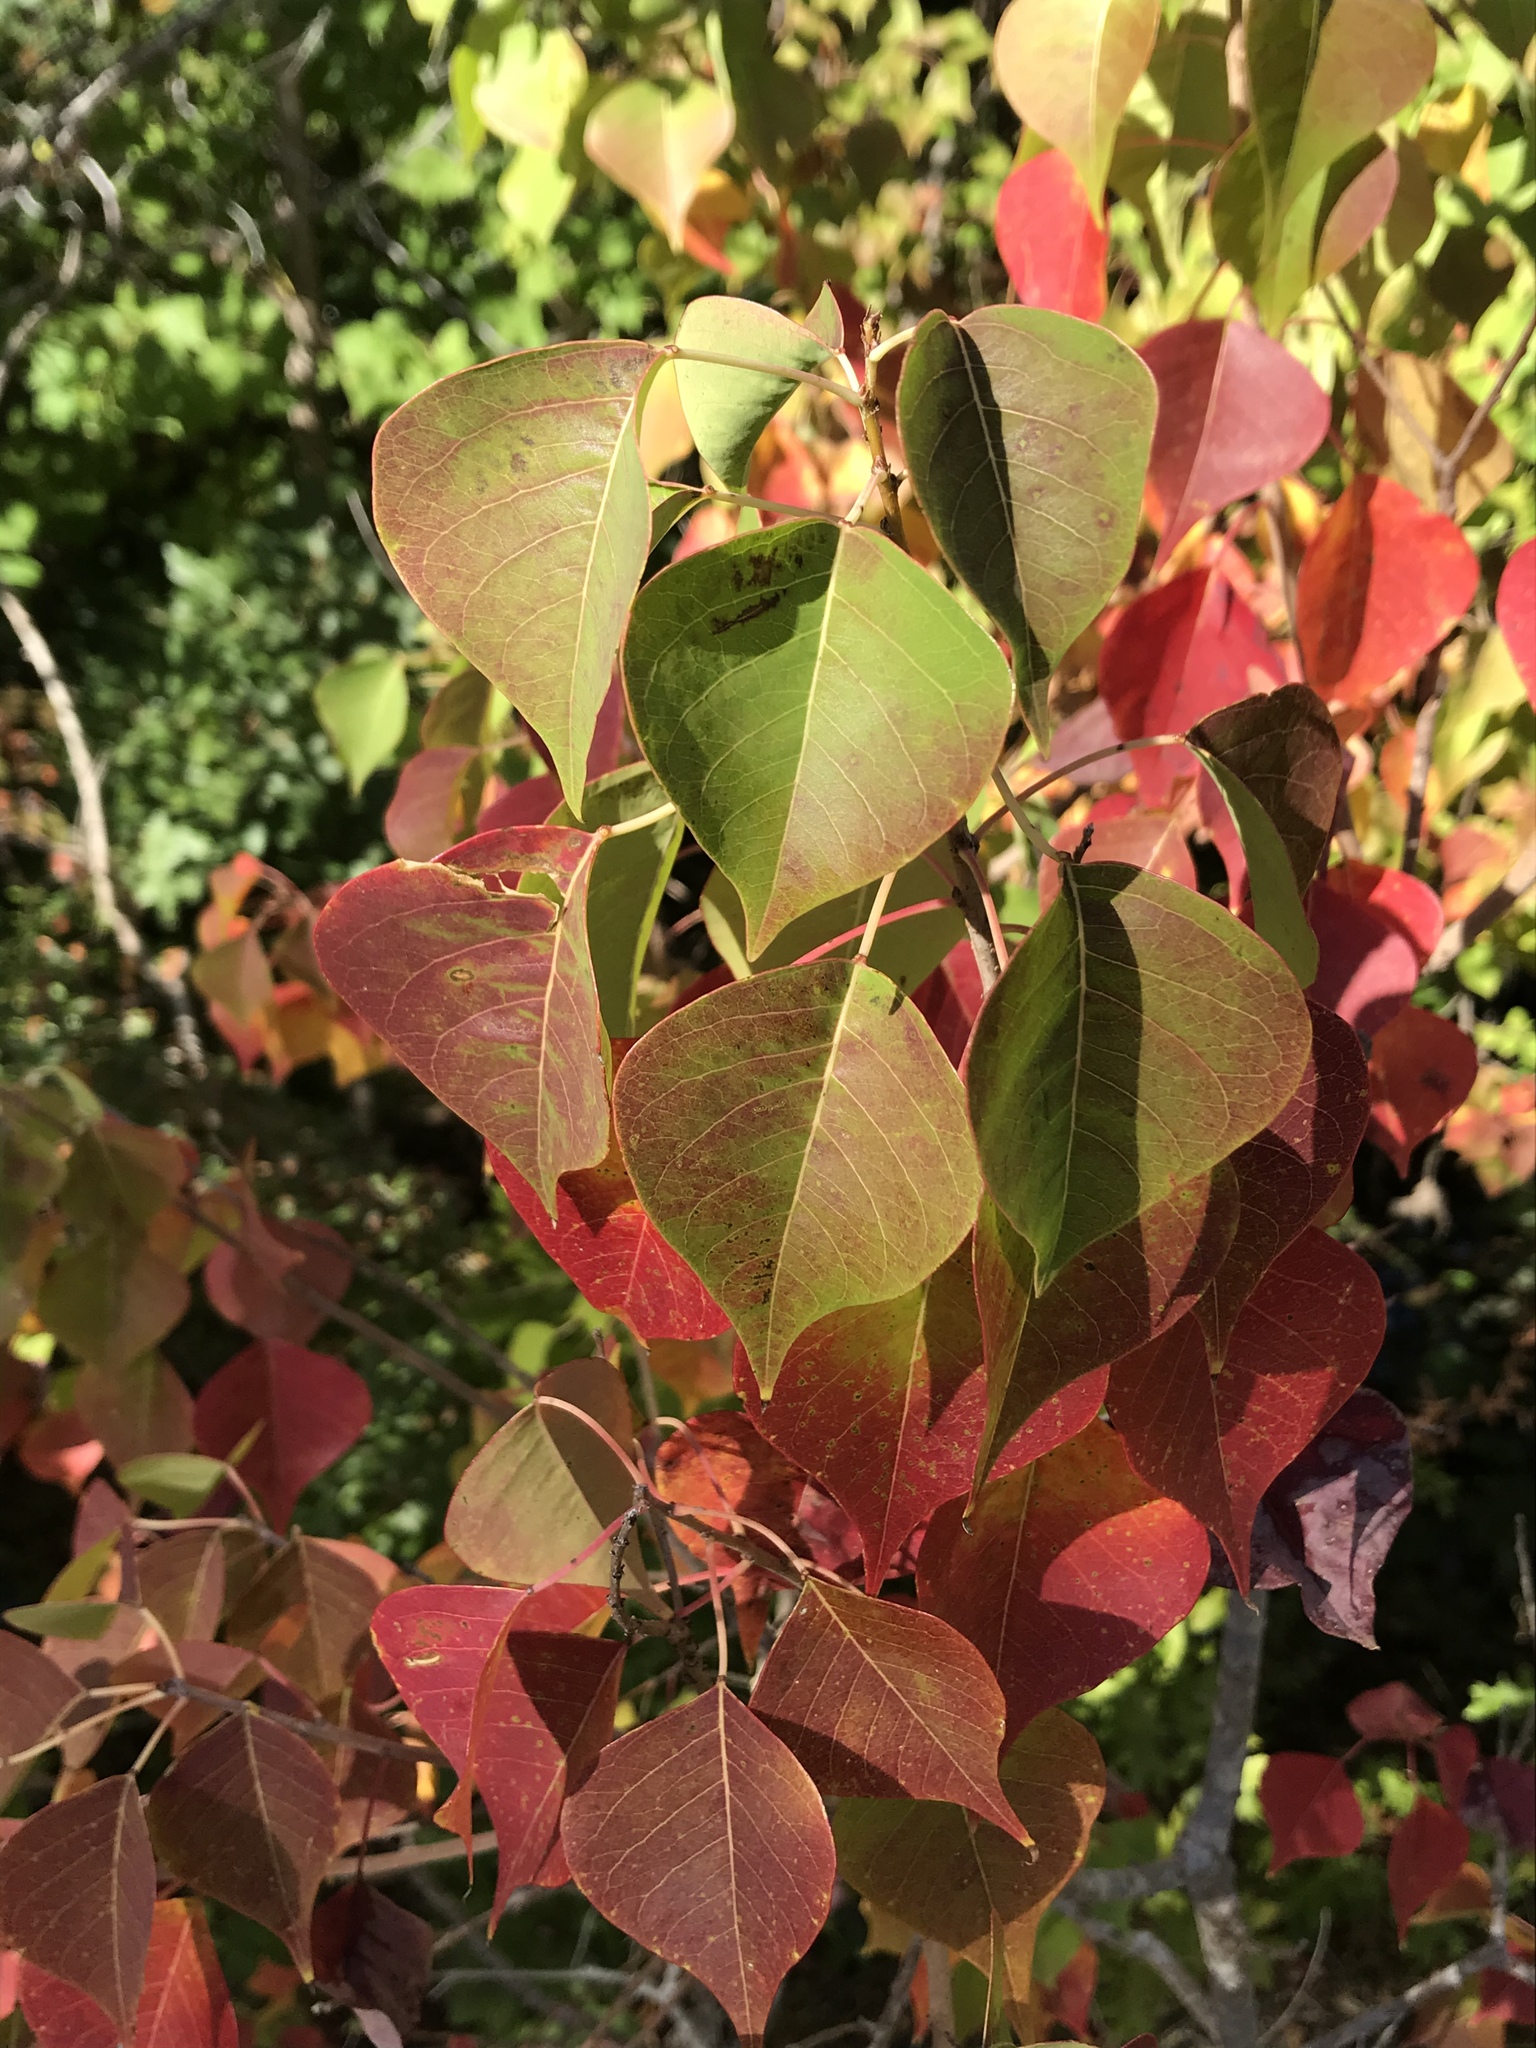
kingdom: Plantae
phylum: Tracheophyta
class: Magnoliopsida
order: Malpighiales
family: Euphorbiaceae
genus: Triadica
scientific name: Triadica sebifera
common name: Chinese tallow
